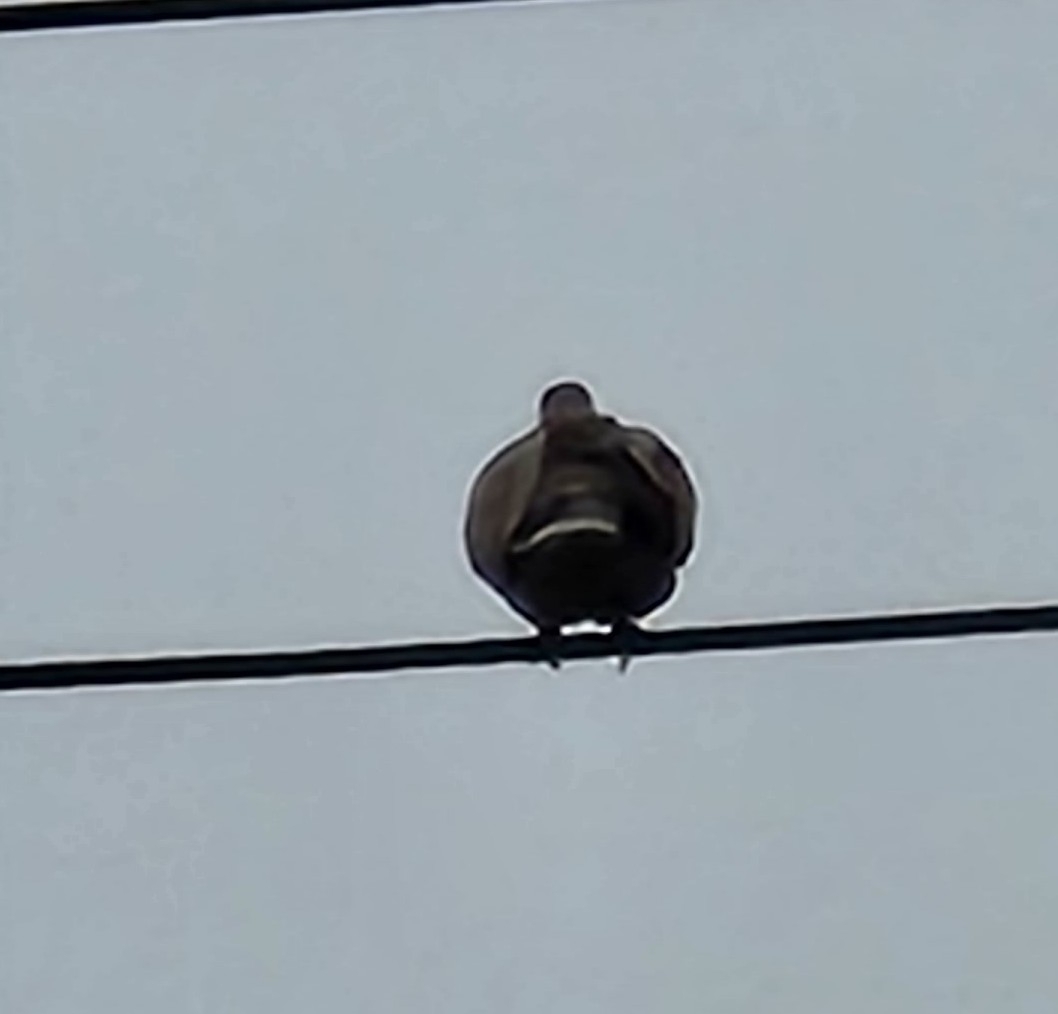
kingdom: Animalia
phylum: Chordata
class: Aves
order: Columbiformes
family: Columbidae
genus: Streptopelia
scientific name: Streptopelia decaocto
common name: Eurasian collared dove
